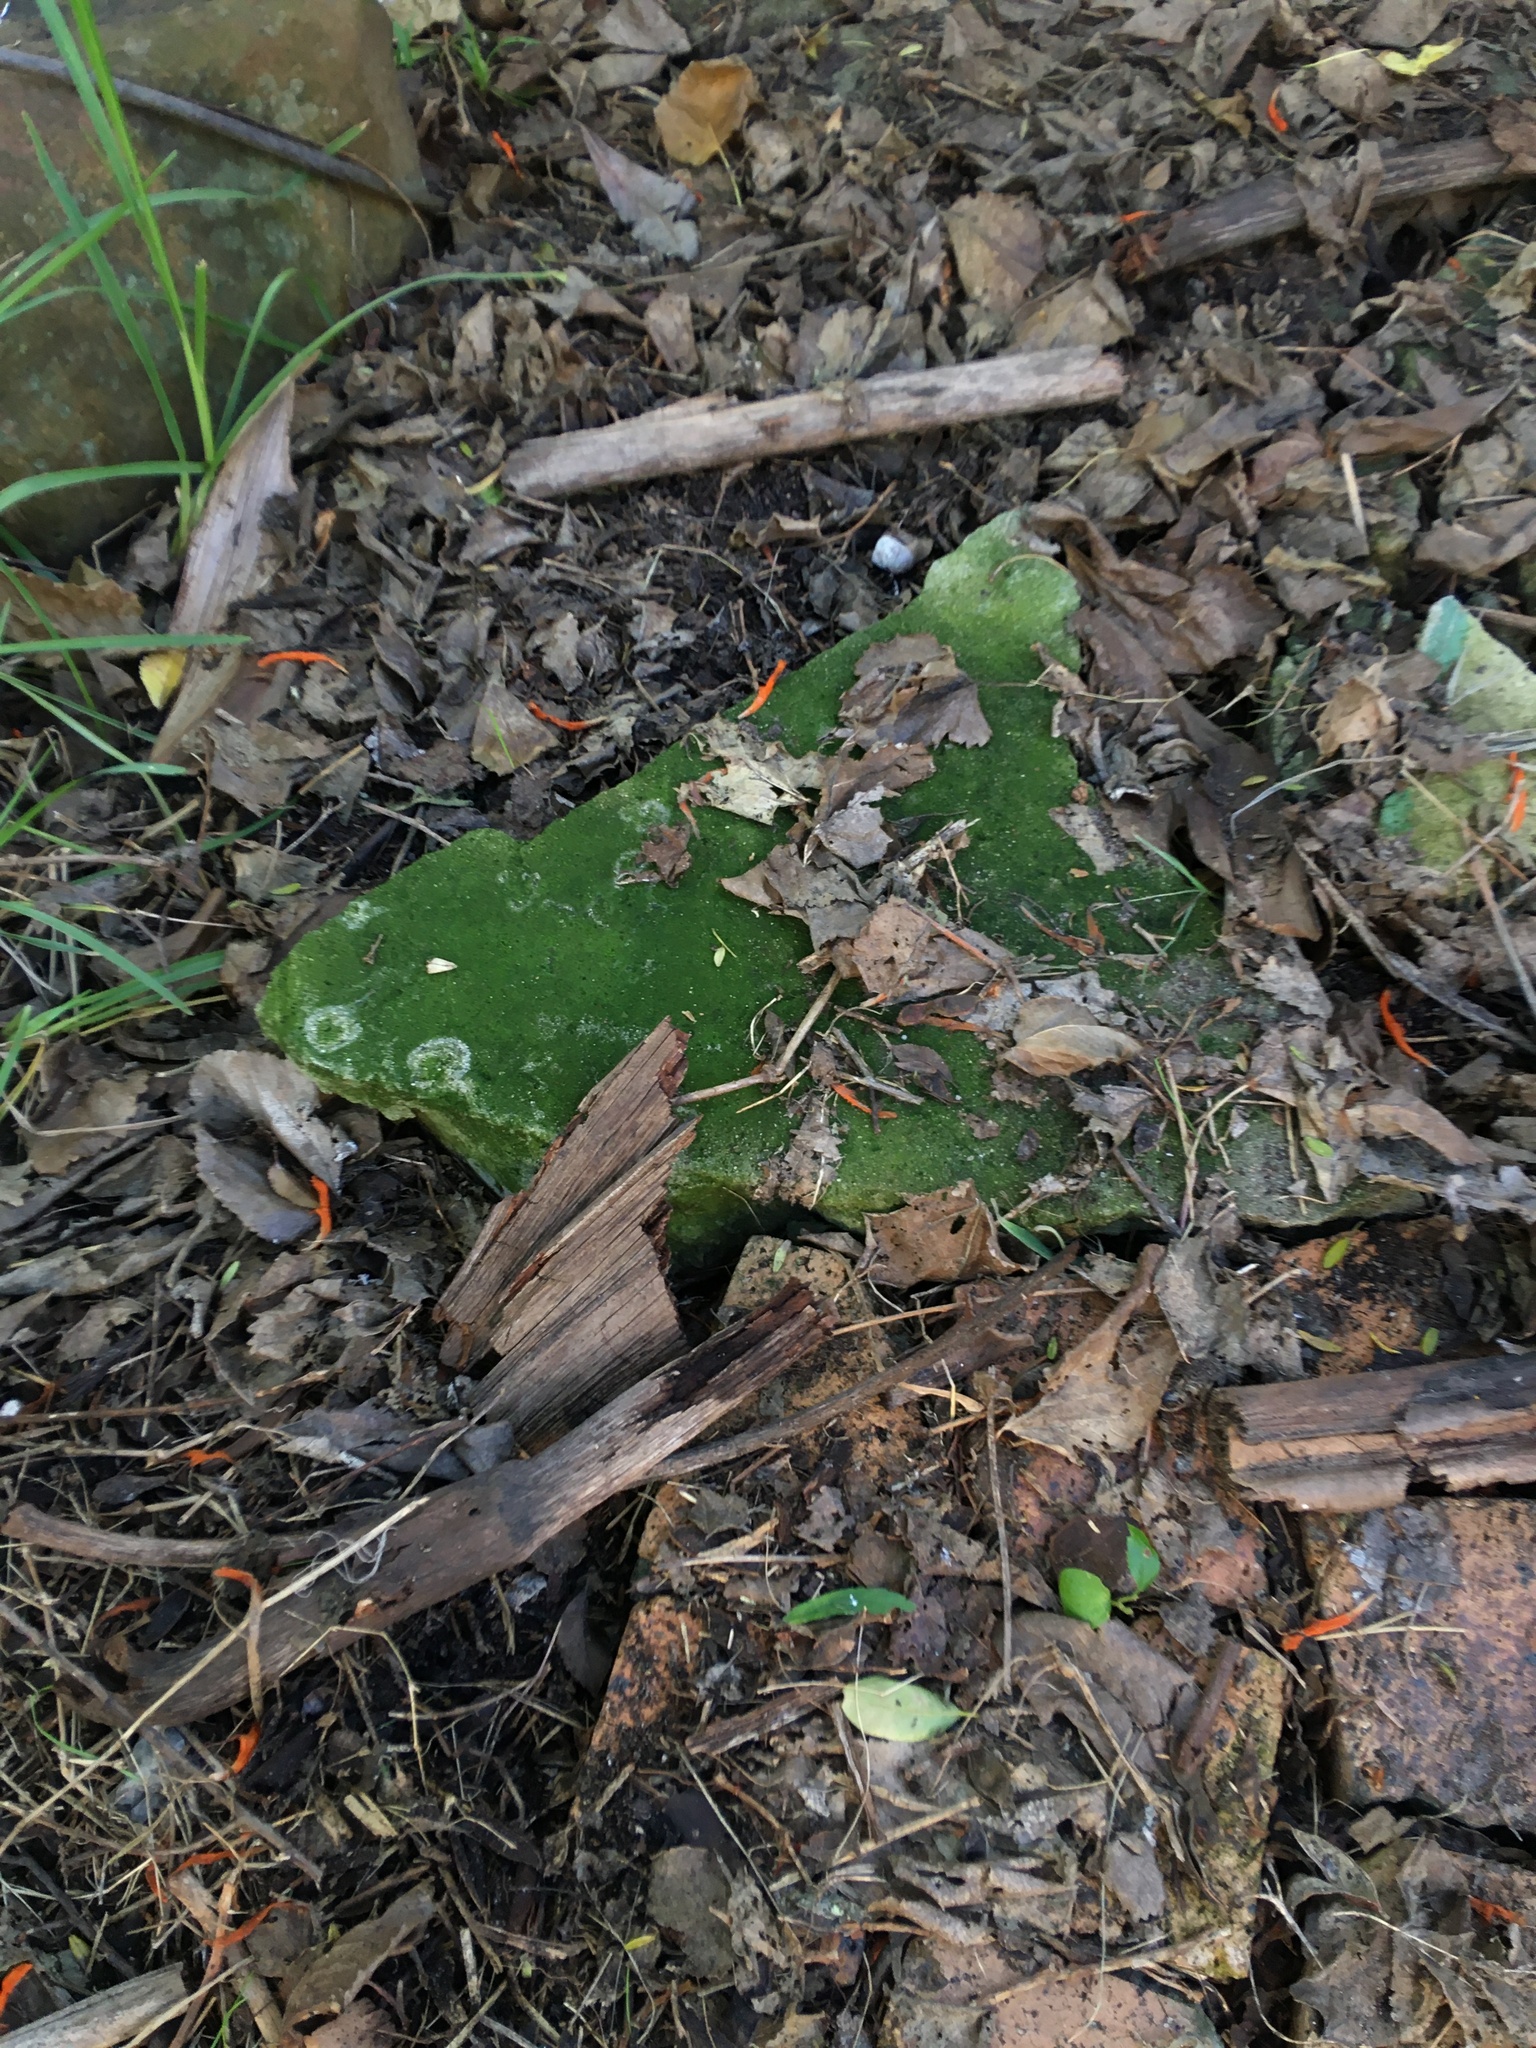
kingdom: Plantae
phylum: Charophyta
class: Klebsormidiophyceae
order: Klebsormidiales
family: Klebsormidiaceae
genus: Klebsormidium
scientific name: Klebsormidium
